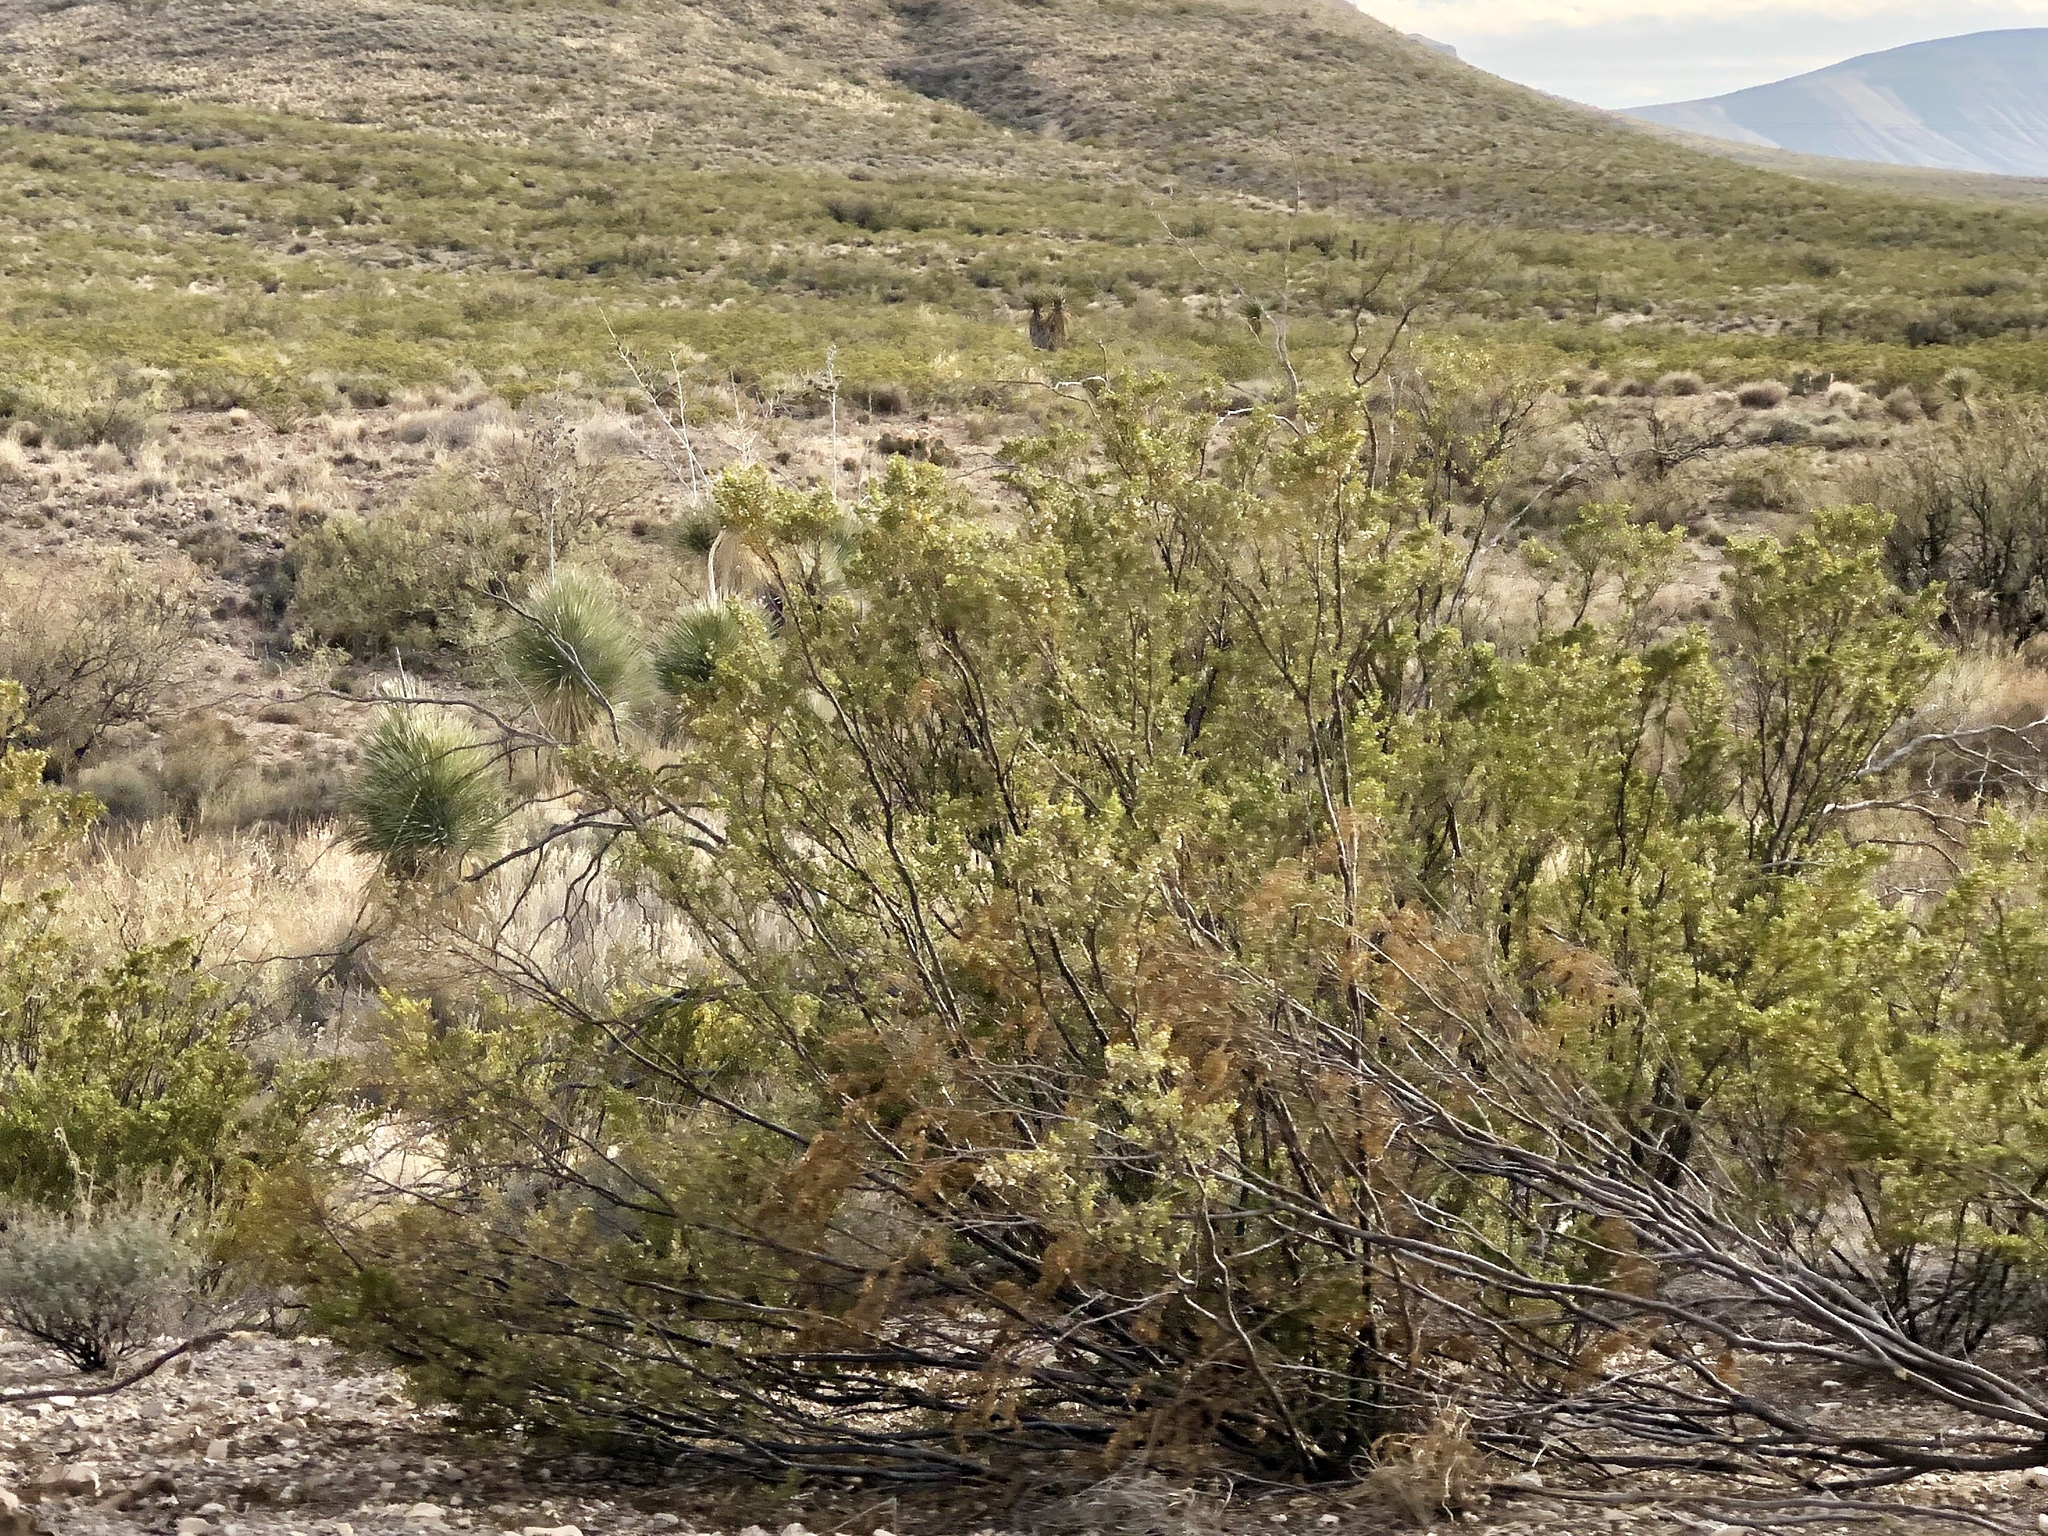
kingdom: Plantae
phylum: Tracheophyta
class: Magnoliopsida
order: Zygophyllales
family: Zygophyllaceae
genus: Larrea
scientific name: Larrea tridentata
